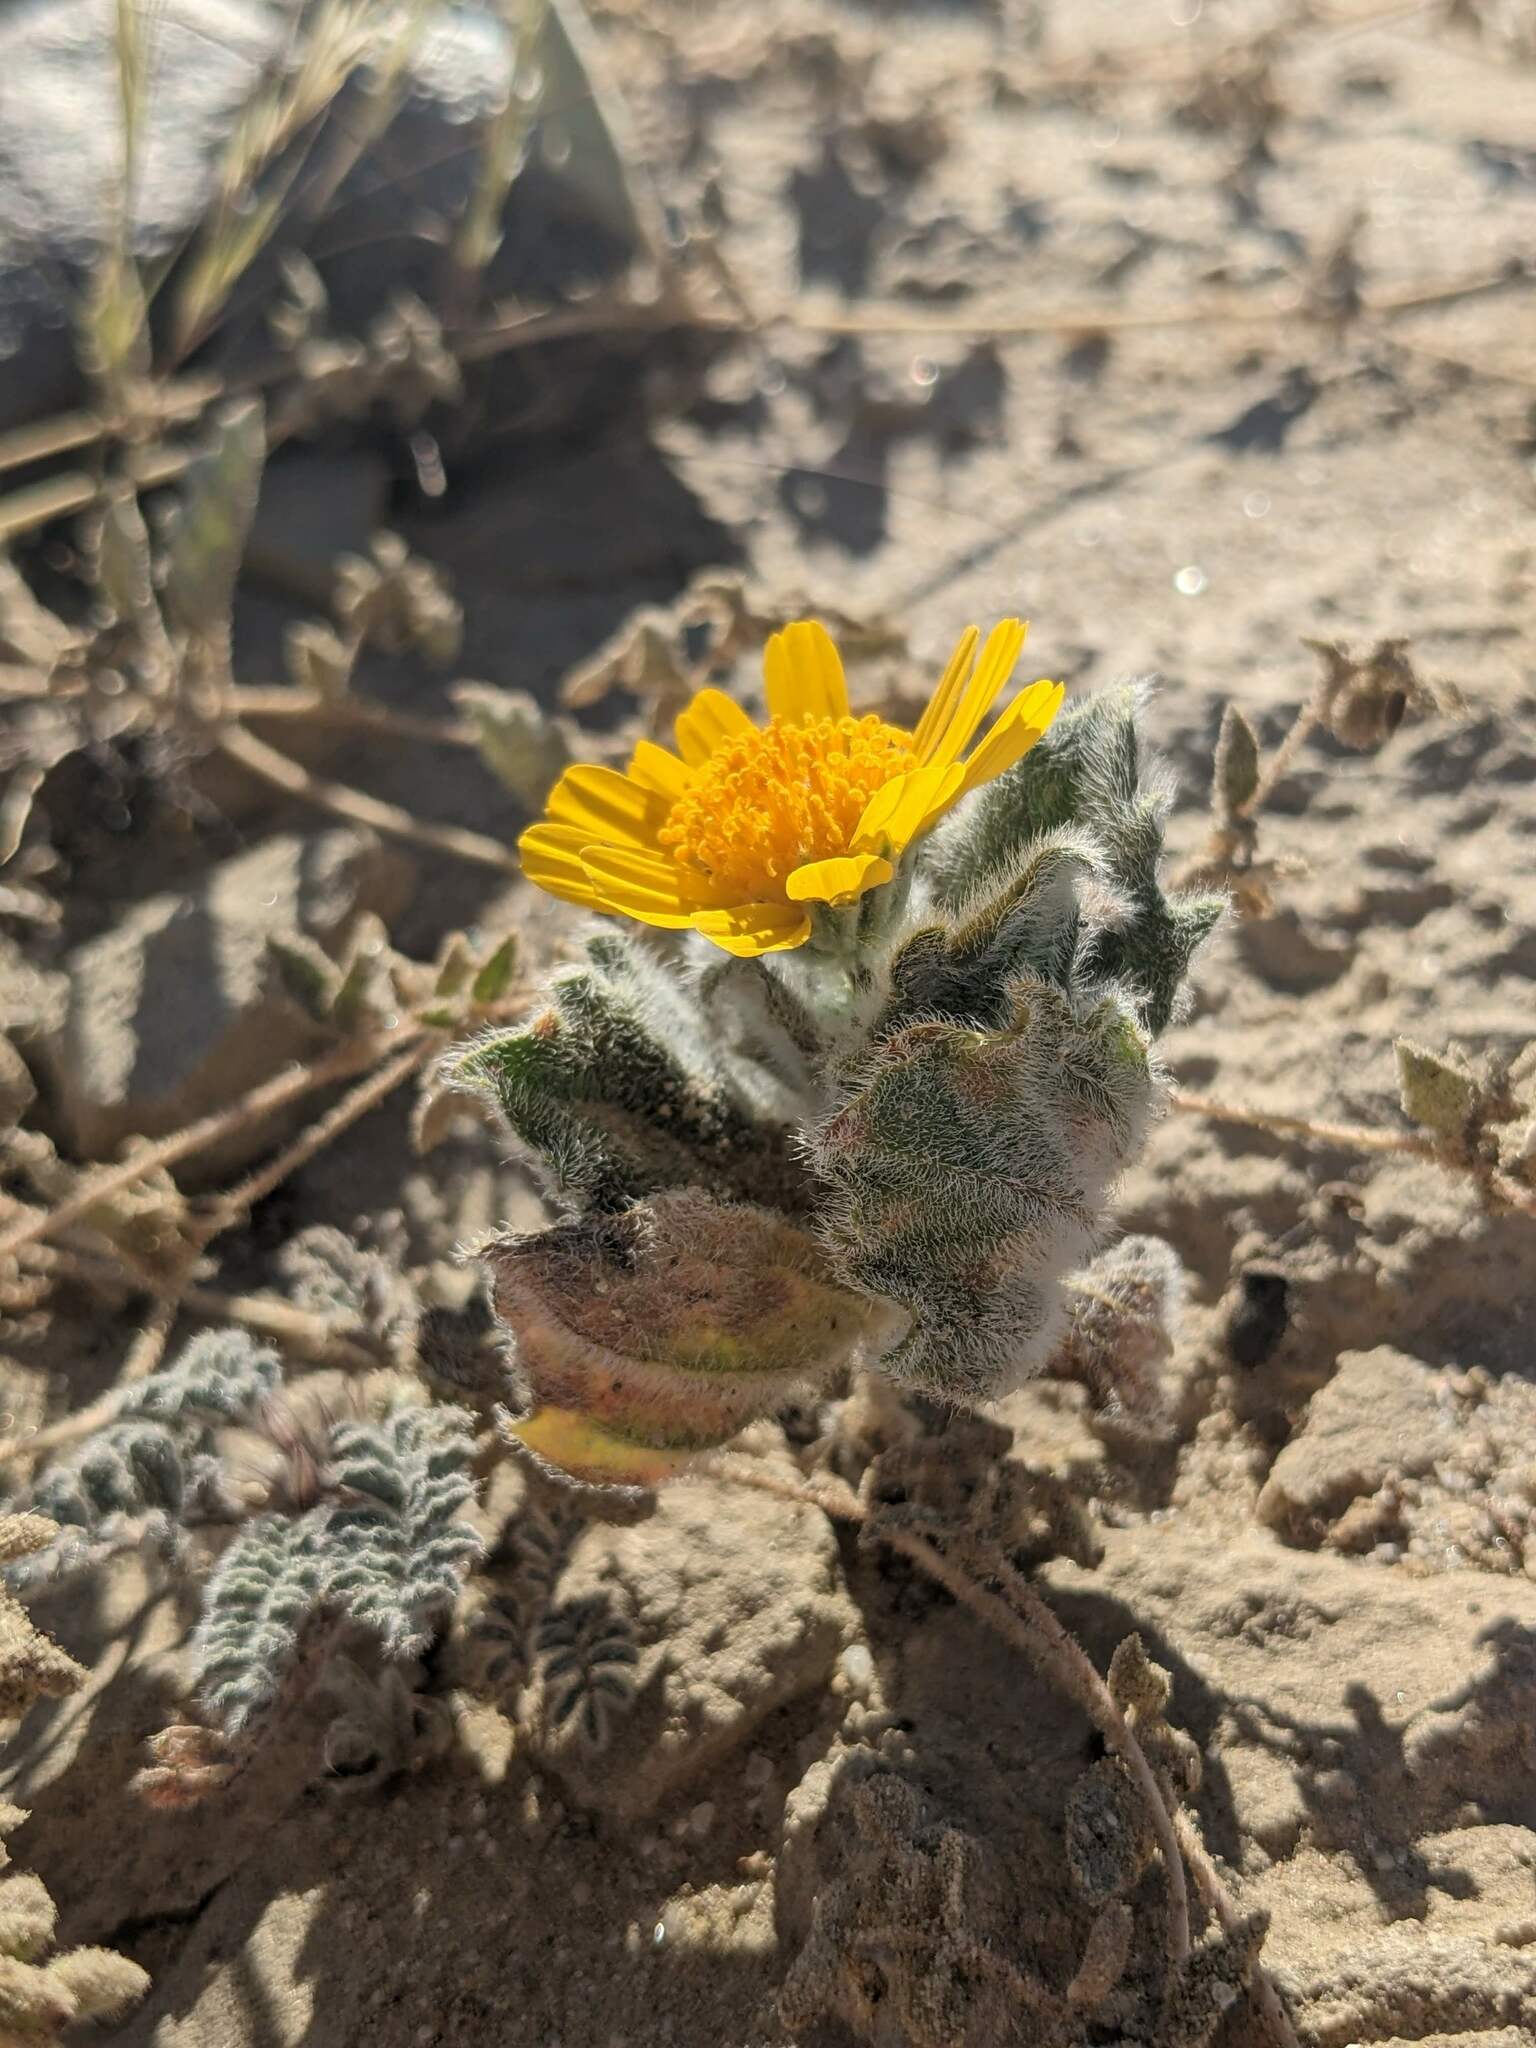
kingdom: Plantae
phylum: Tracheophyta
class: Magnoliopsida
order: Asterales
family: Asteraceae
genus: Geraea
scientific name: Geraea canescens
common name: Desert-gold
